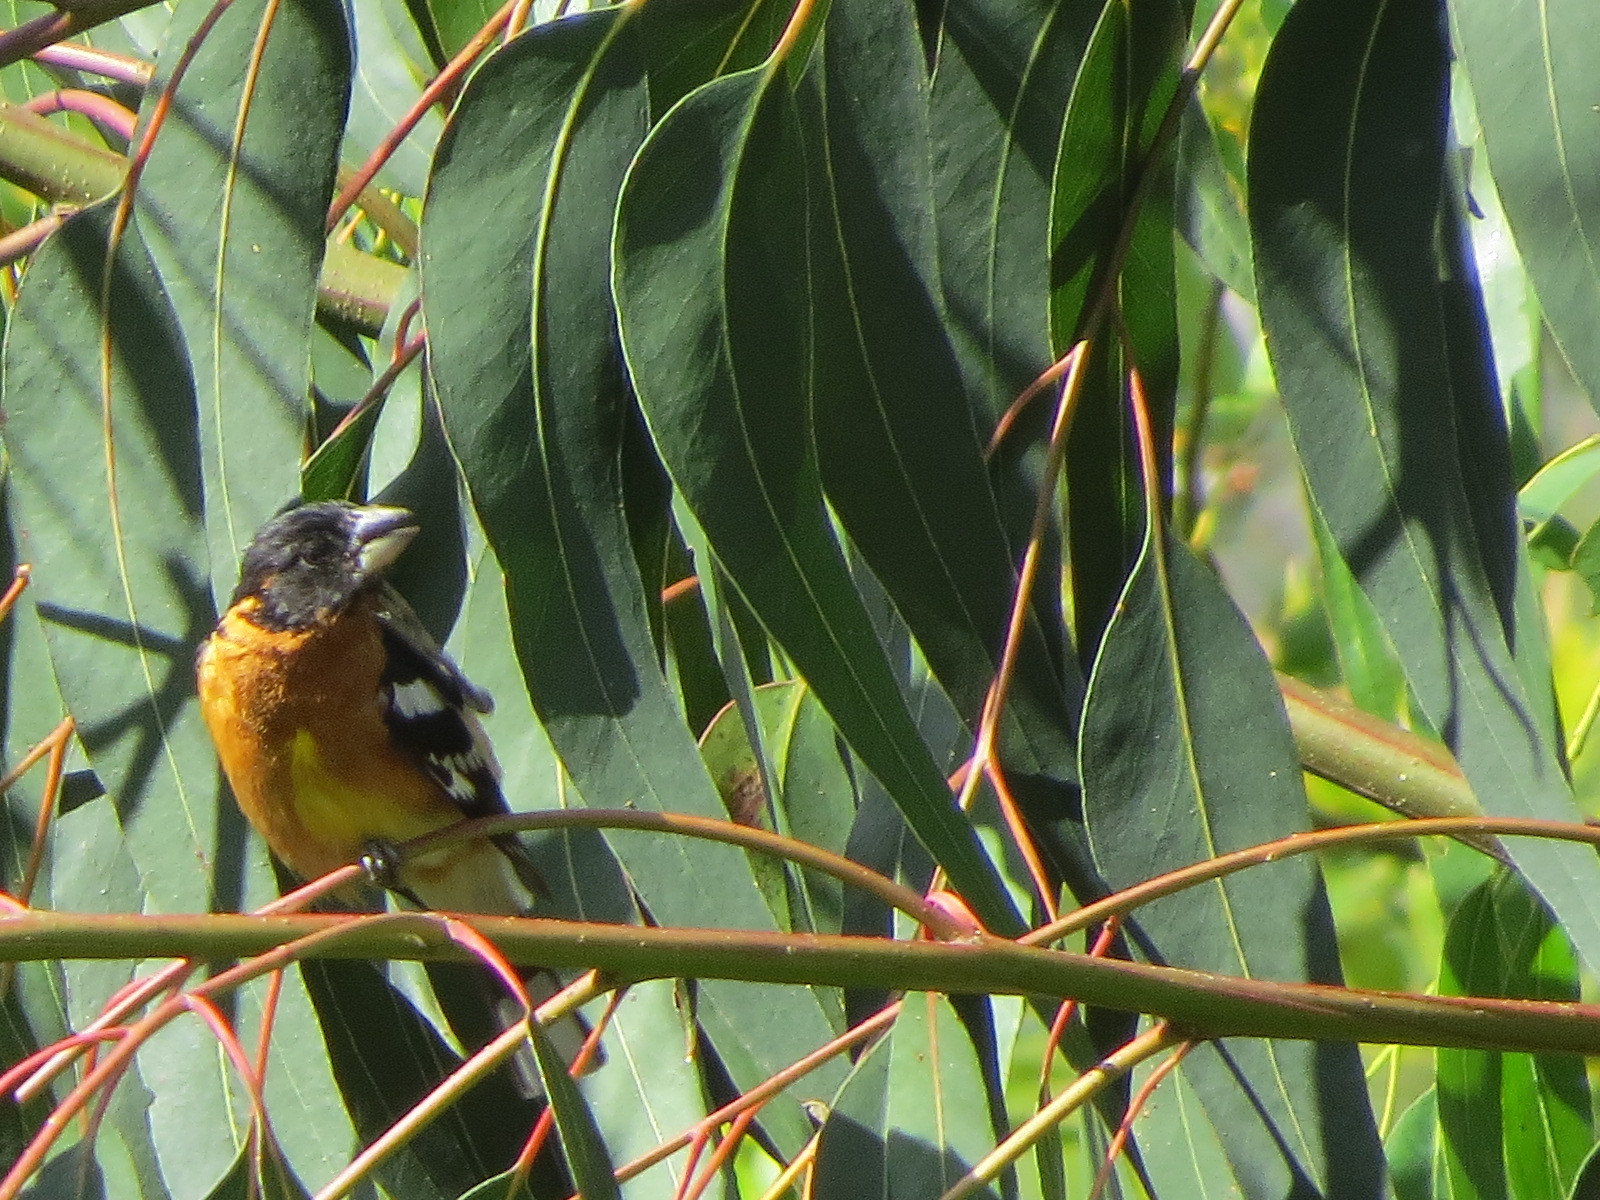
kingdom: Animalia
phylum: Chordata
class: Aves
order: Passeriformes
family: Cardinalidae
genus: Pheucticus
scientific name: Pheucticus melanocephalus
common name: Black-headed grosbeak
